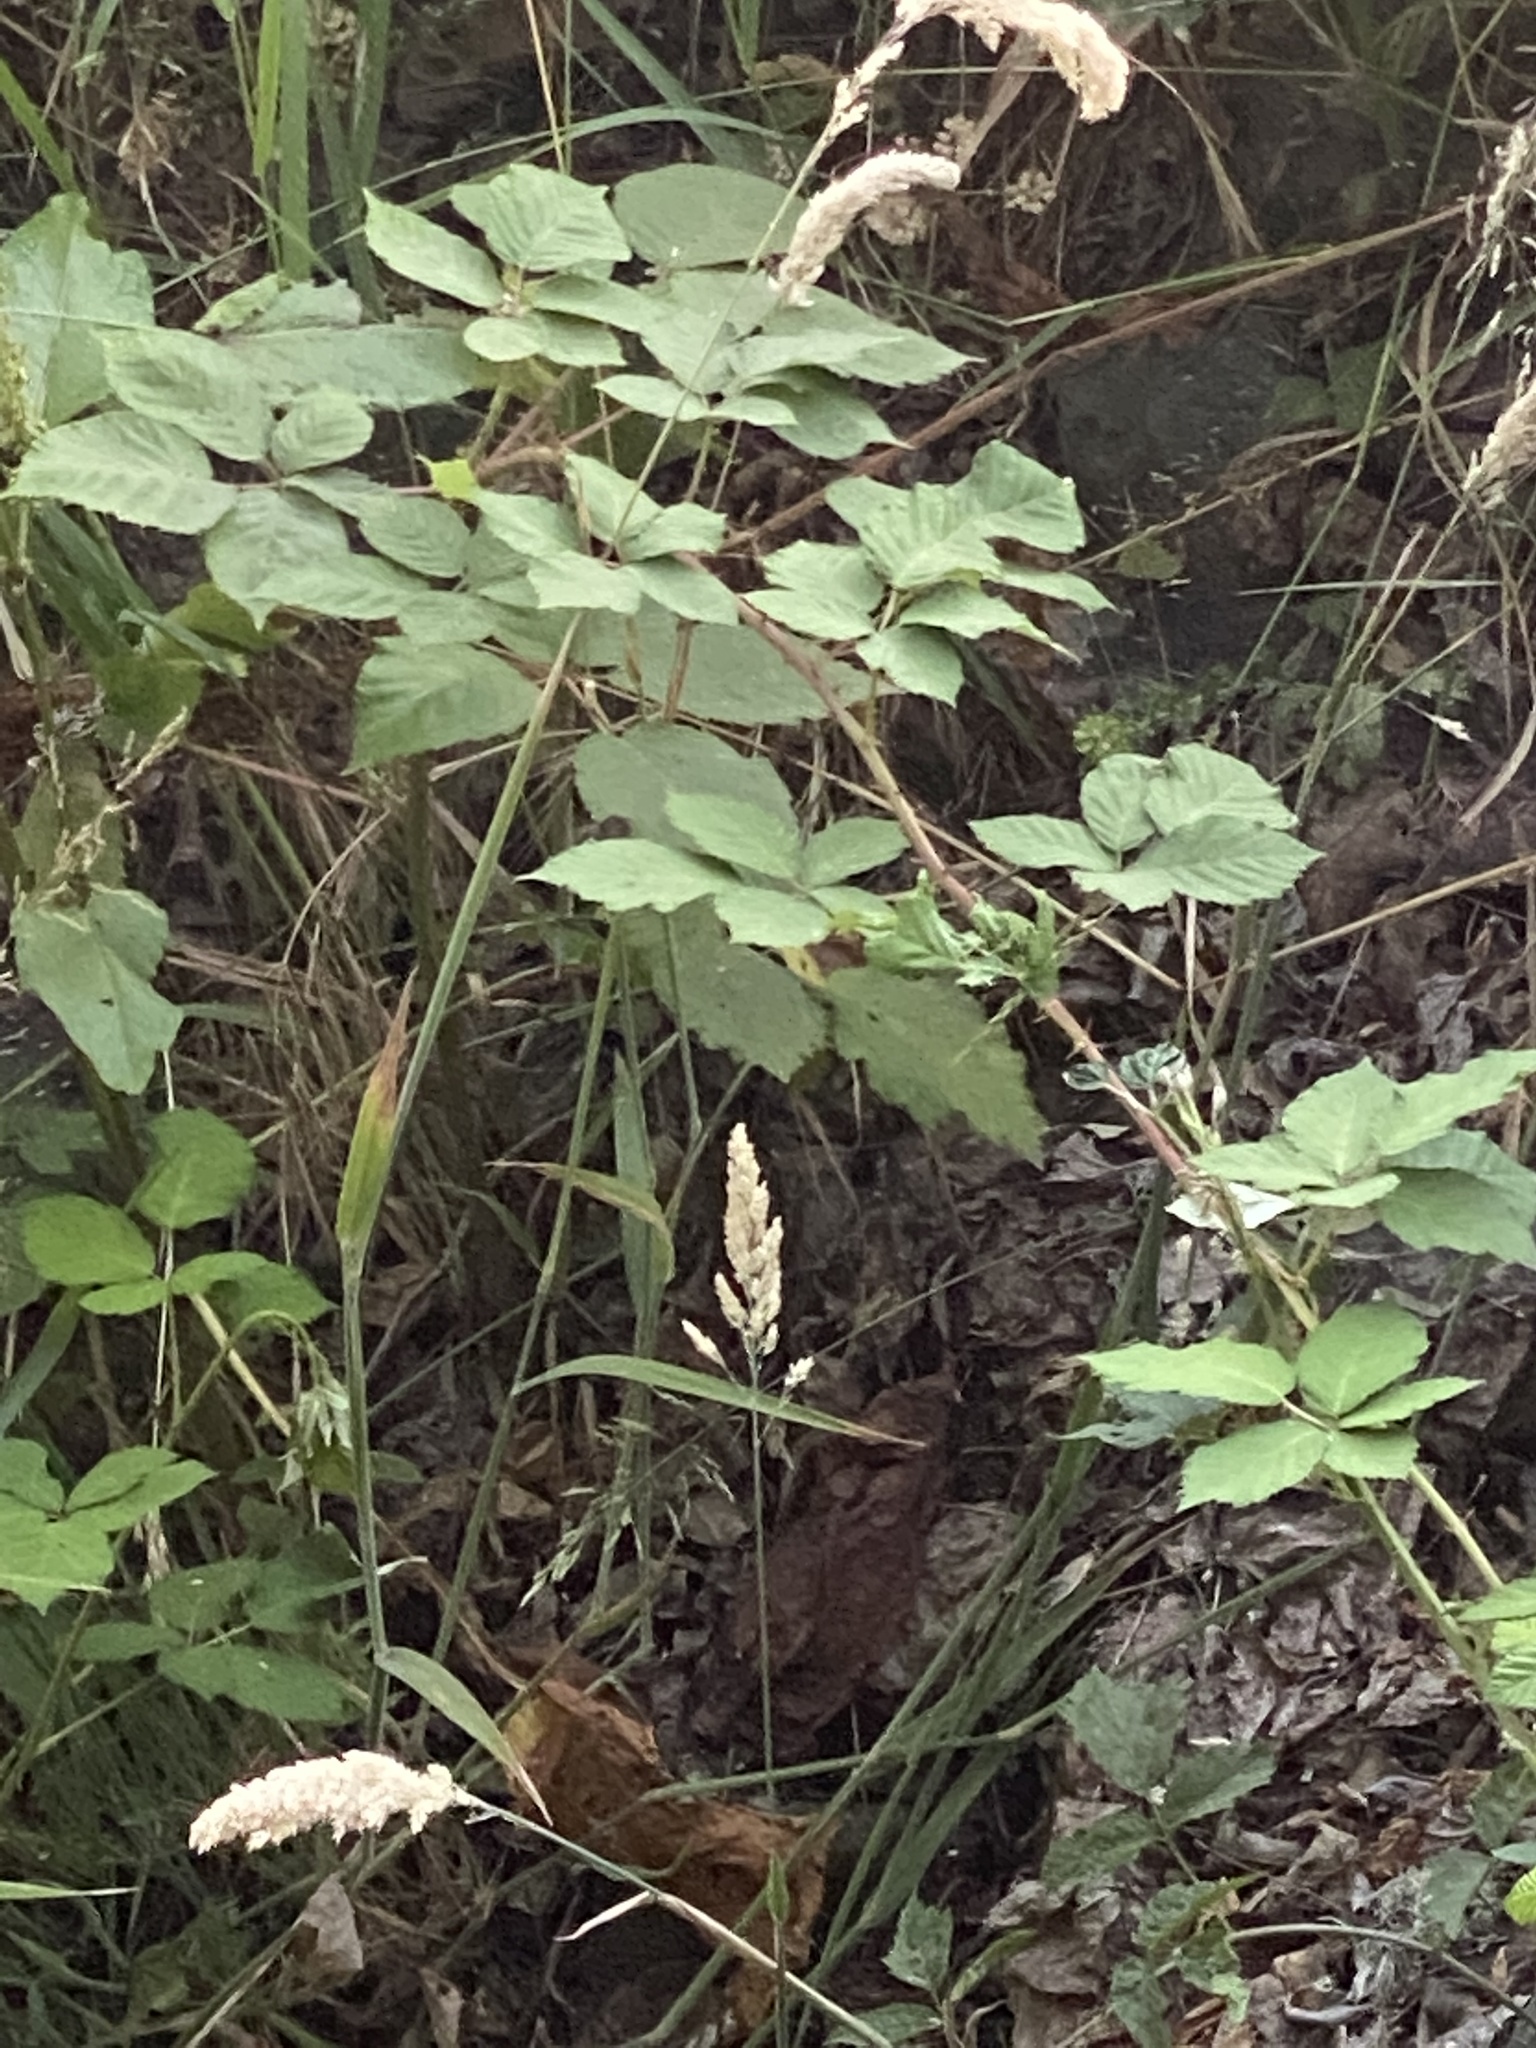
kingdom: Plantae
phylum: Tracheophyta
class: Magnoliopsida
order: Rosales
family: Rosaceae
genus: Rubus
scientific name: Rubus bifrons
